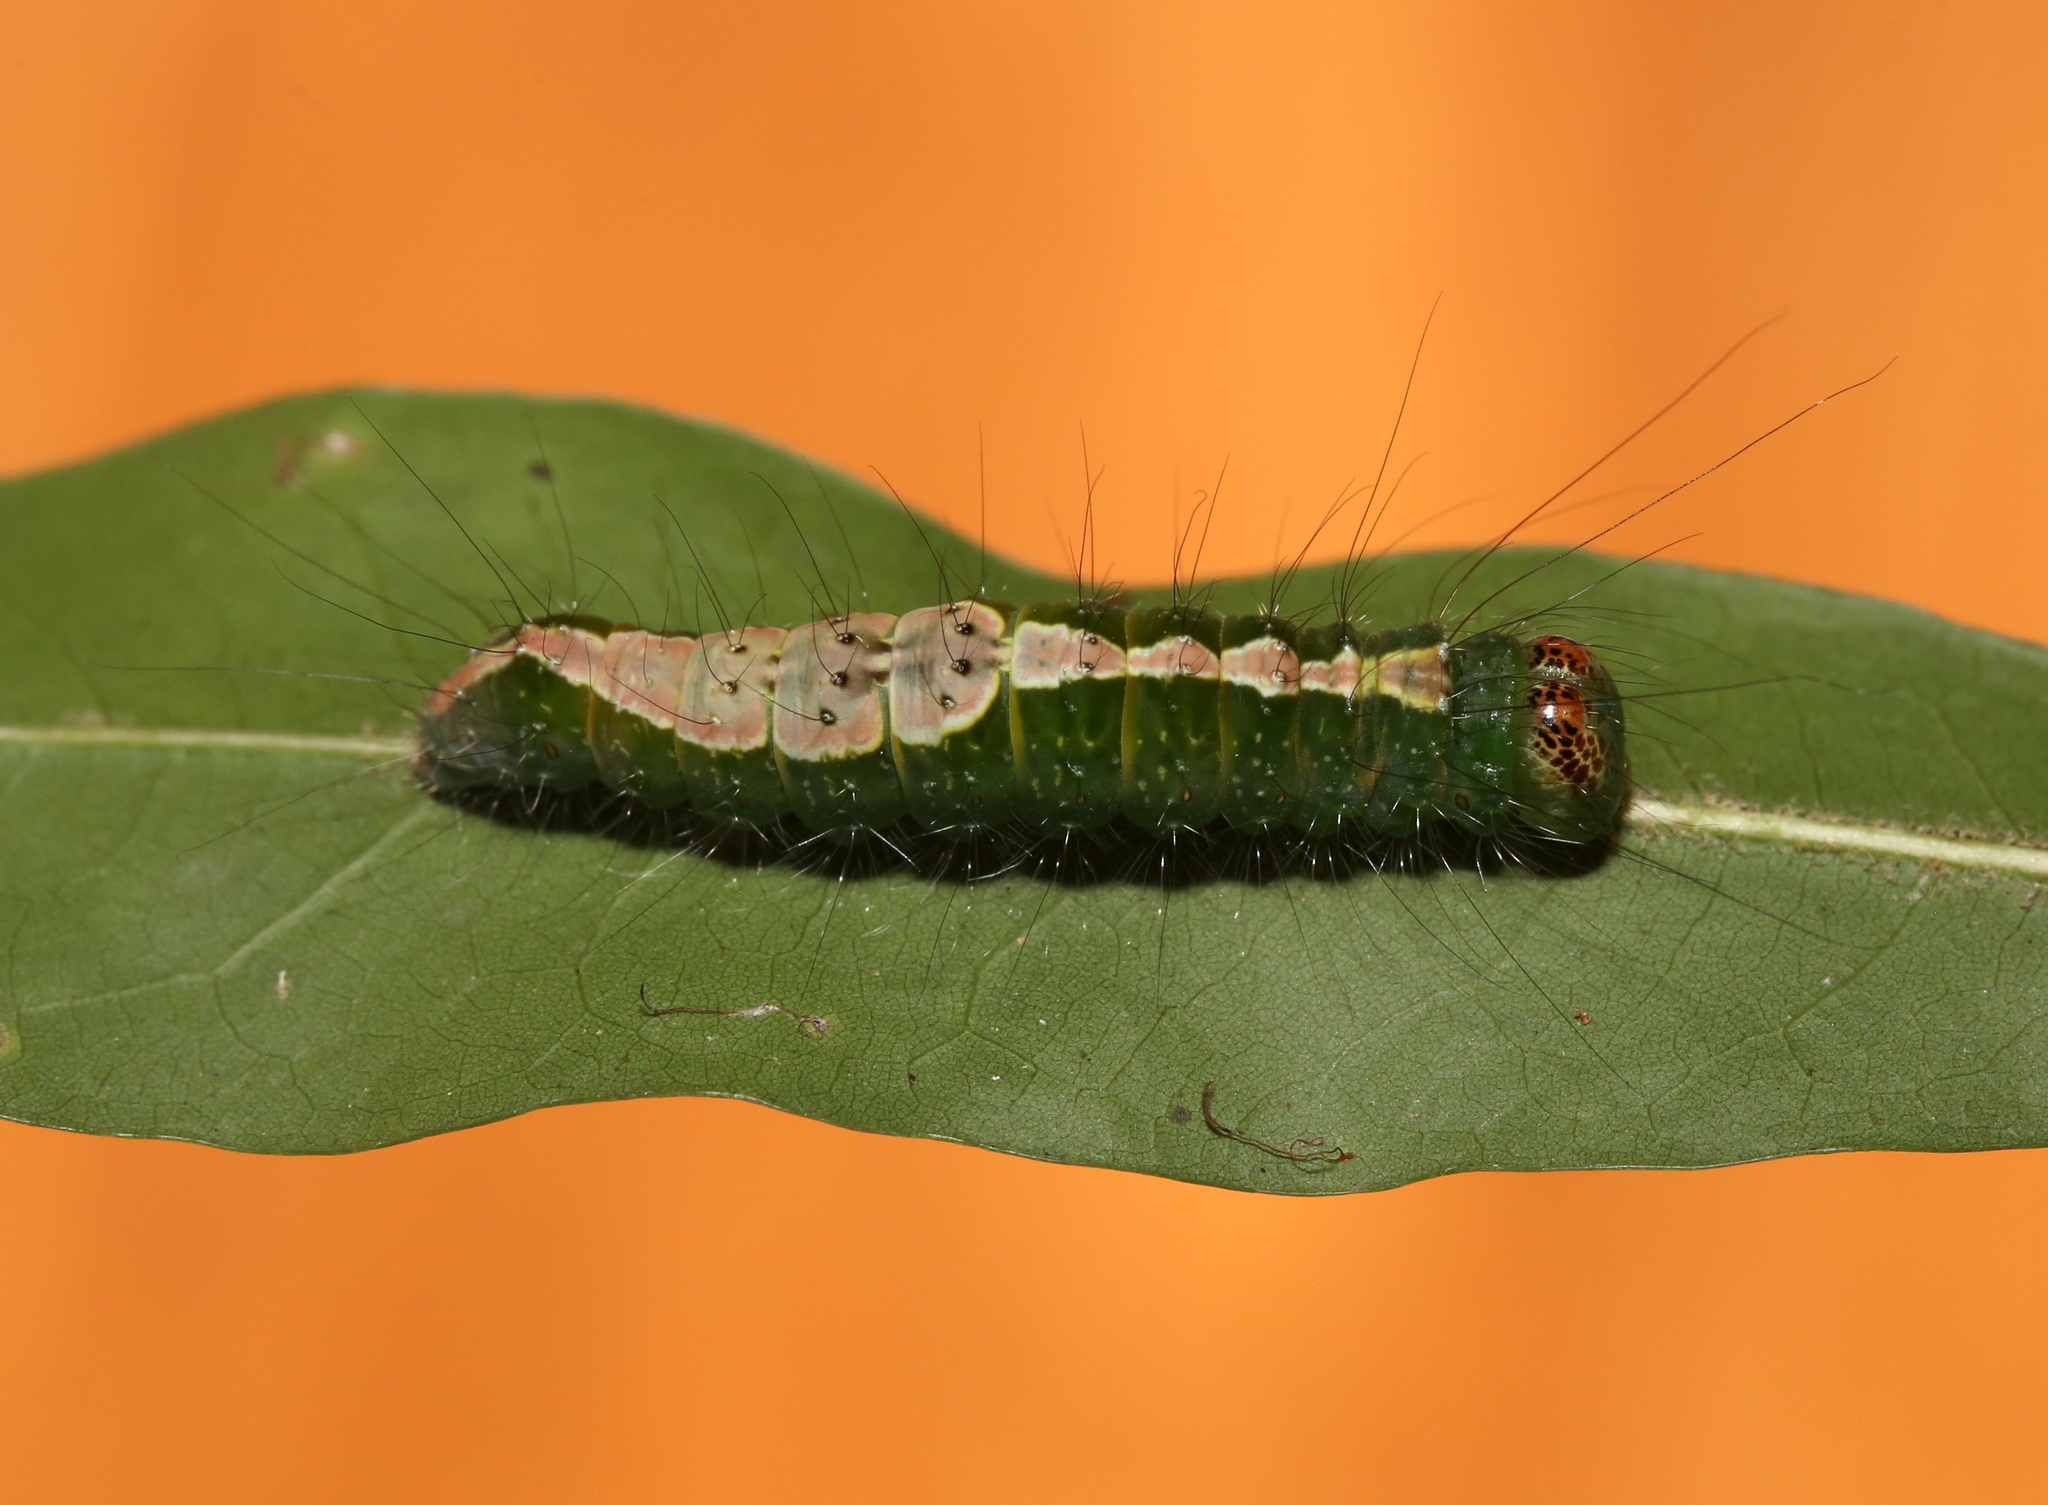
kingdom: Animalia
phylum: Arthropoda
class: Insecta
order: Lepidoptera
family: Noctuidae
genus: Acronicta
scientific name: Acronicta lithospila
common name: Streaked dagger
